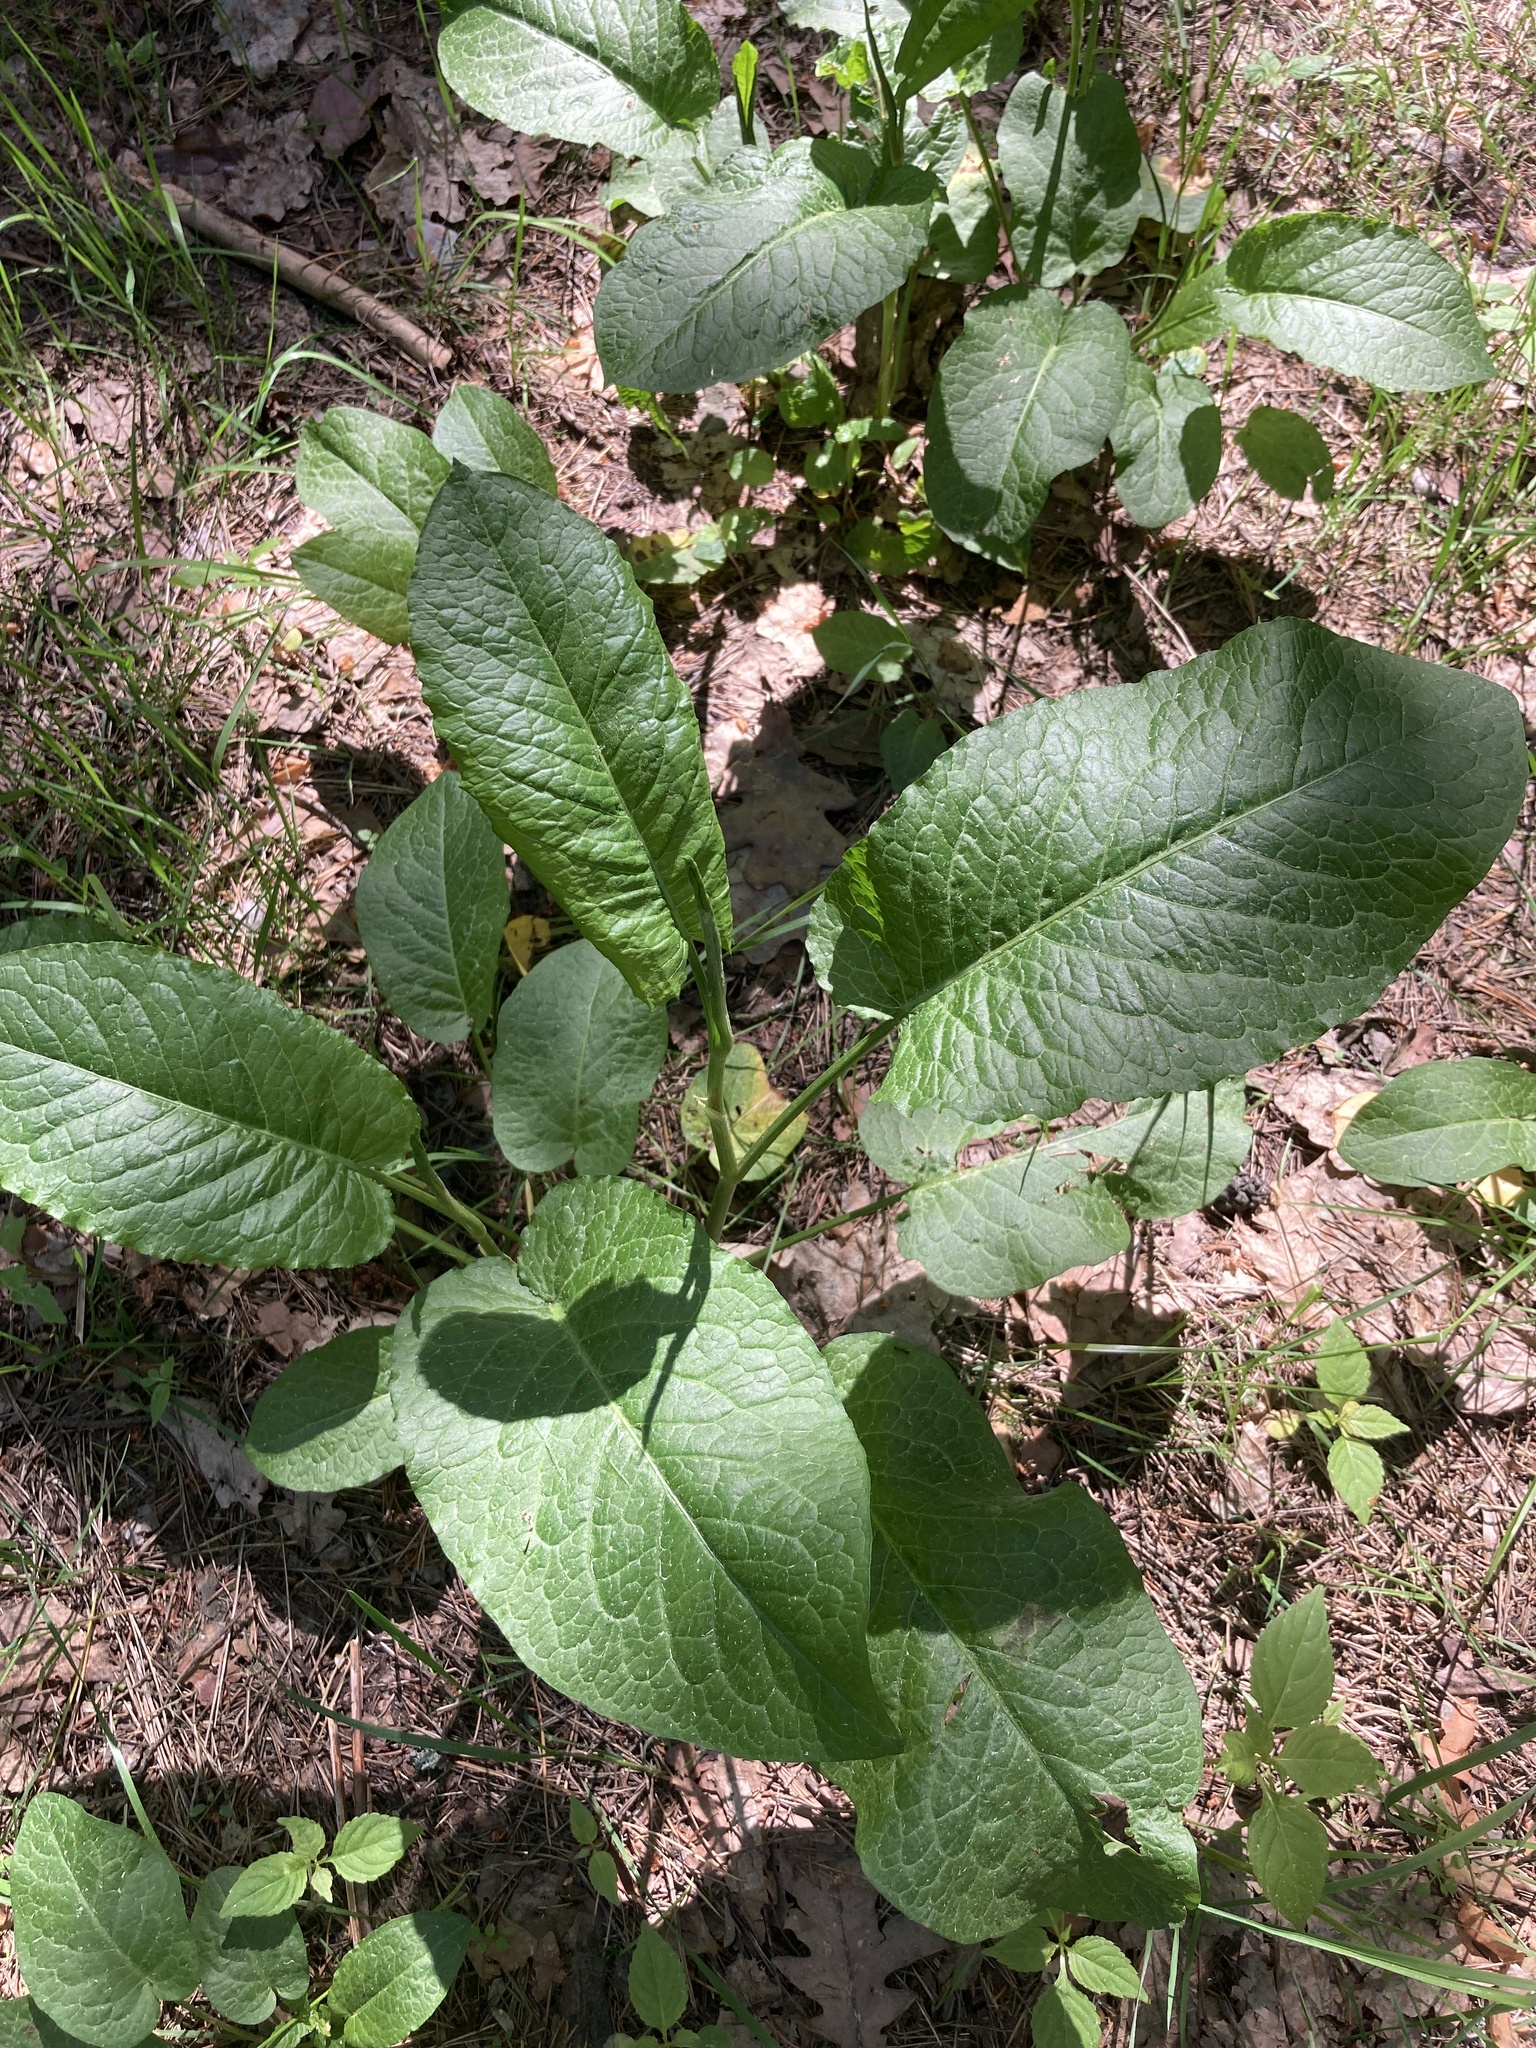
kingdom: Plantae
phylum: Tracheophyta
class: Magnoliopsida
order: Caryophyllales
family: Polygonaceae
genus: Rumex
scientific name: Rumex obtusifolius
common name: Bitter dock
